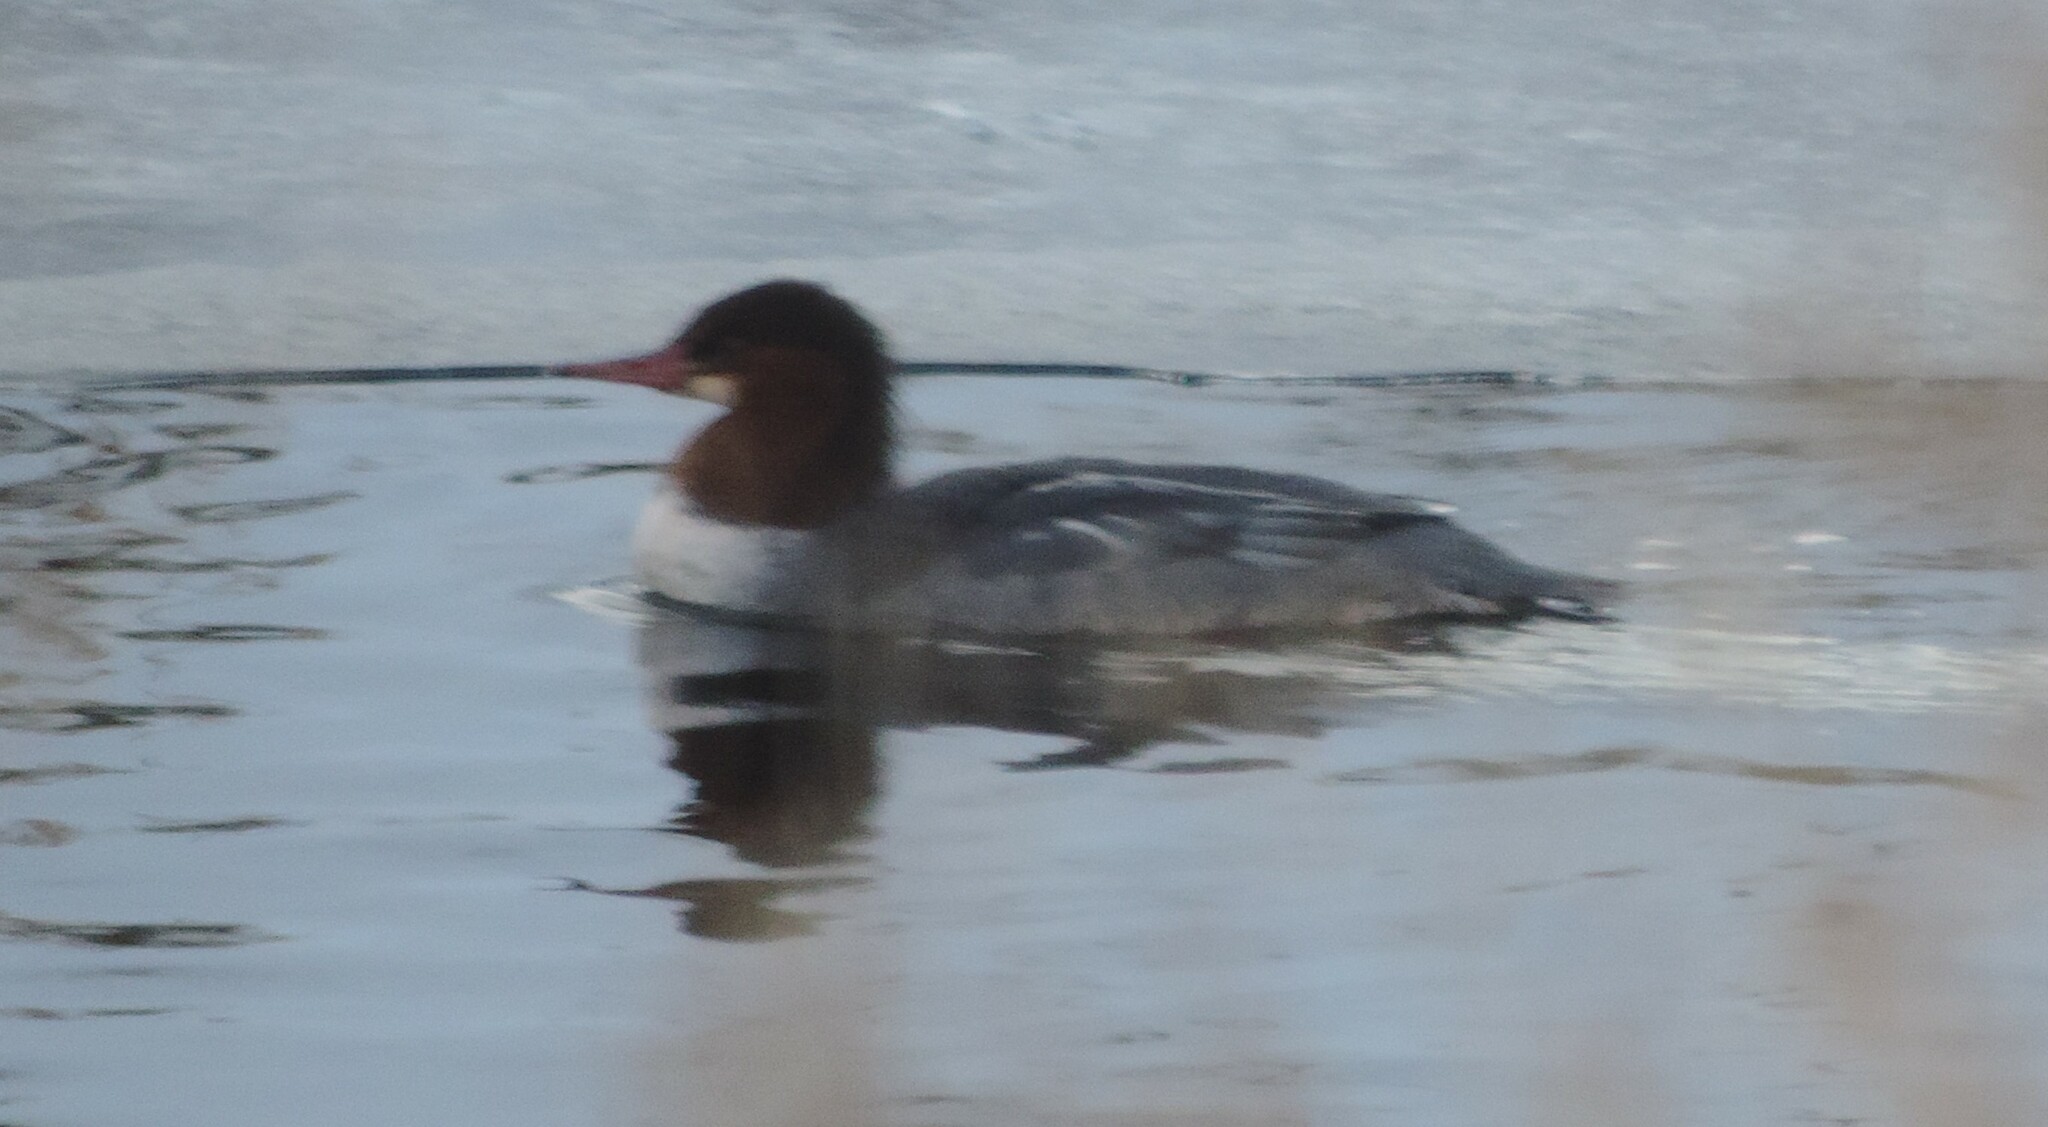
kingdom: Animalia
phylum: Chordata
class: Aves
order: Anseriformes
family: Anatidae
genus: Mergus
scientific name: Mergus merganser
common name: Common merganser
